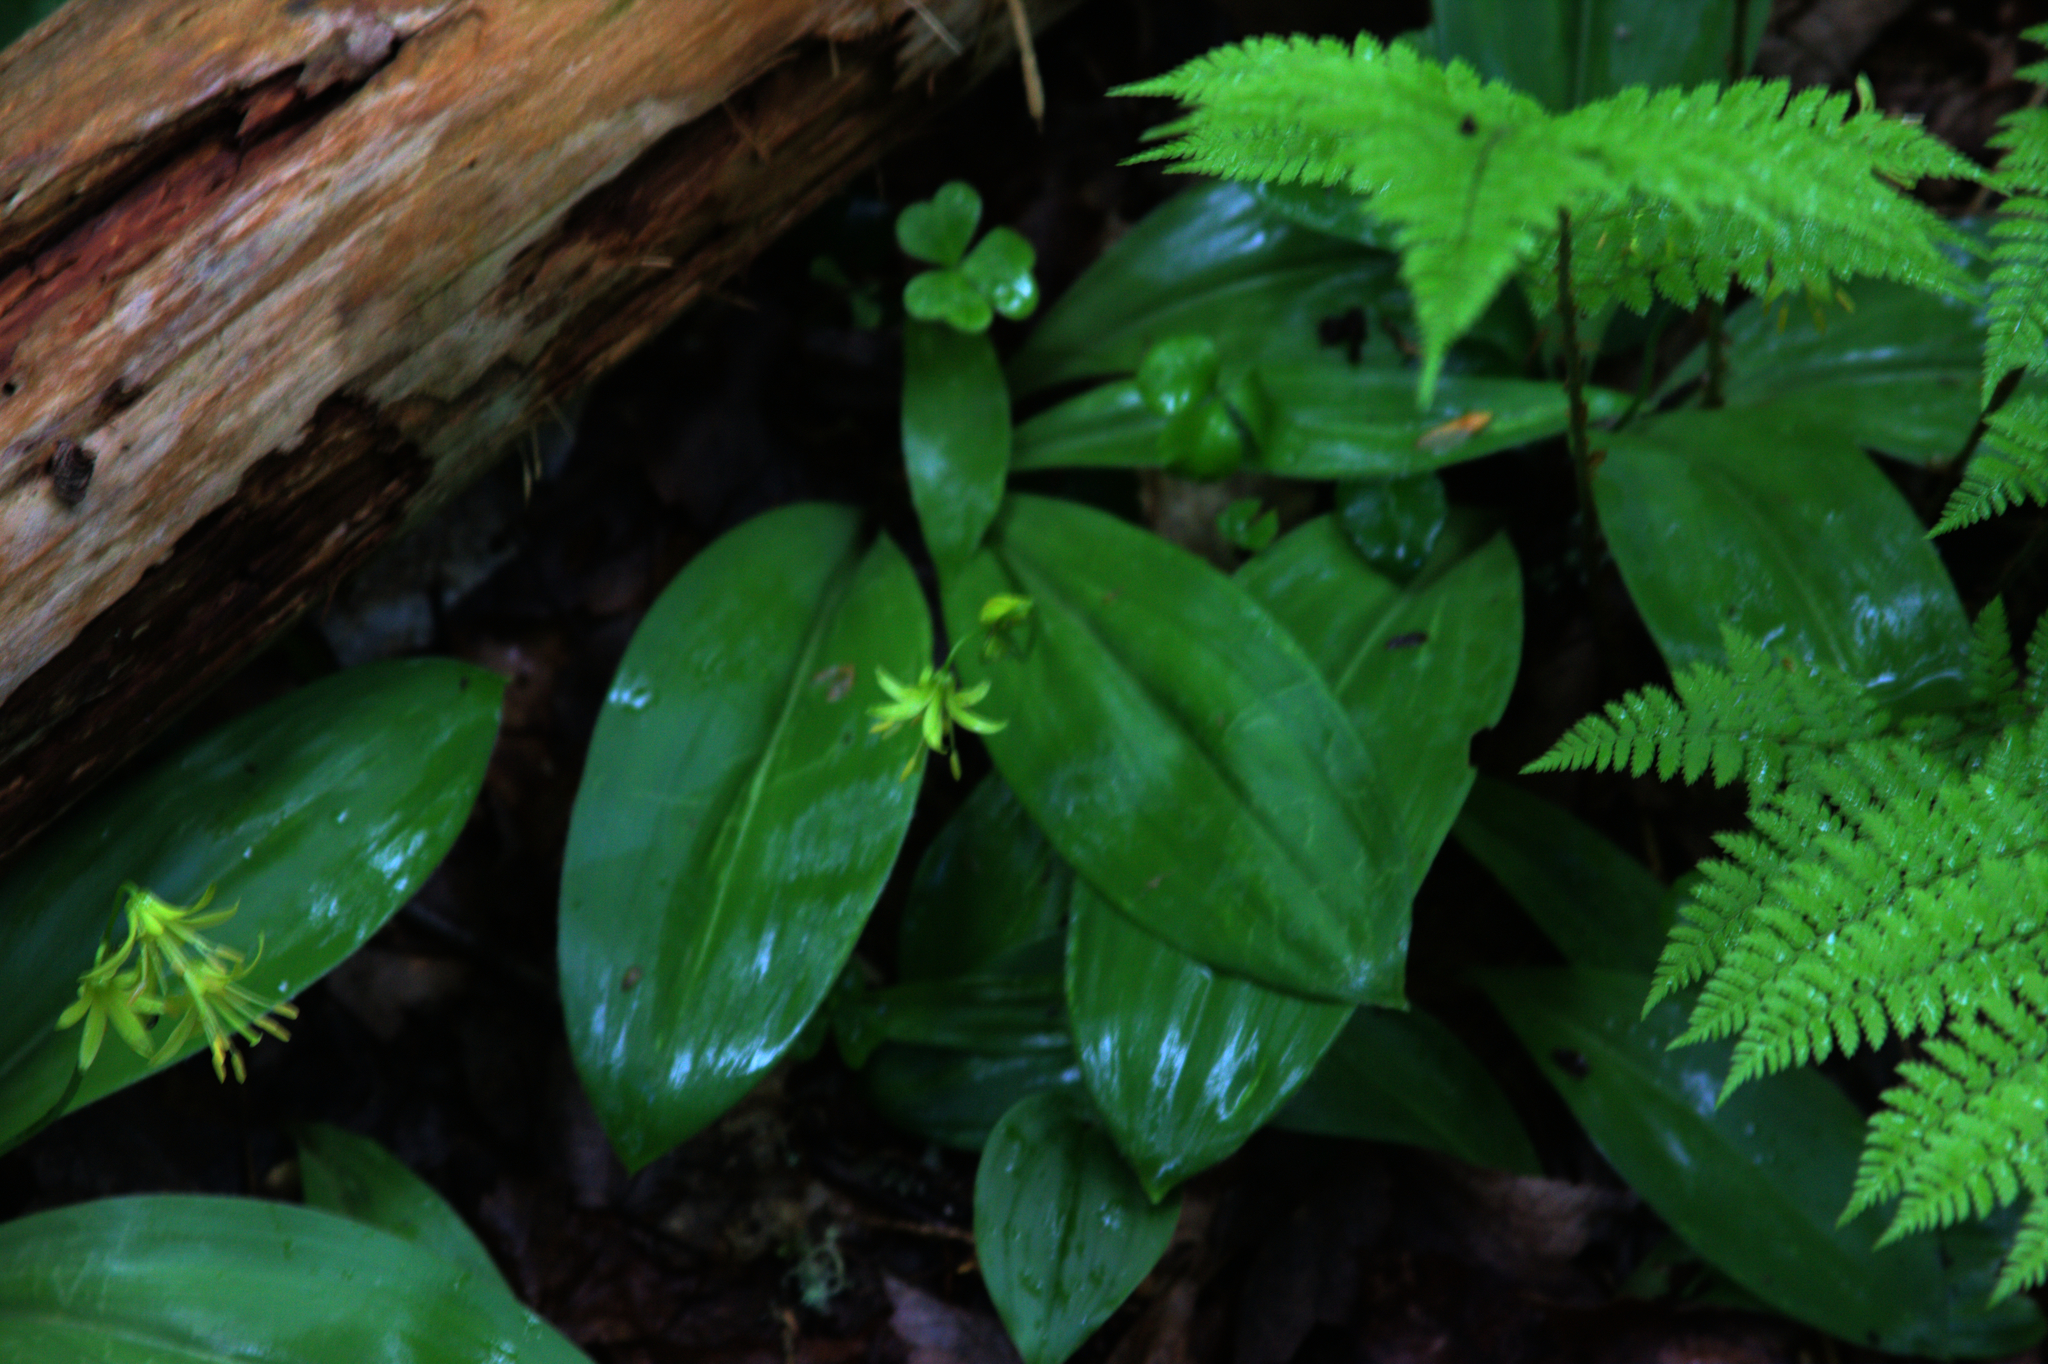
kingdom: Plantae
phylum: Tracheophyta
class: Liliopsida
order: Liliales
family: Liliaceae
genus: Clintonia
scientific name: Clintonia borealis
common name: Yellow clintonia
